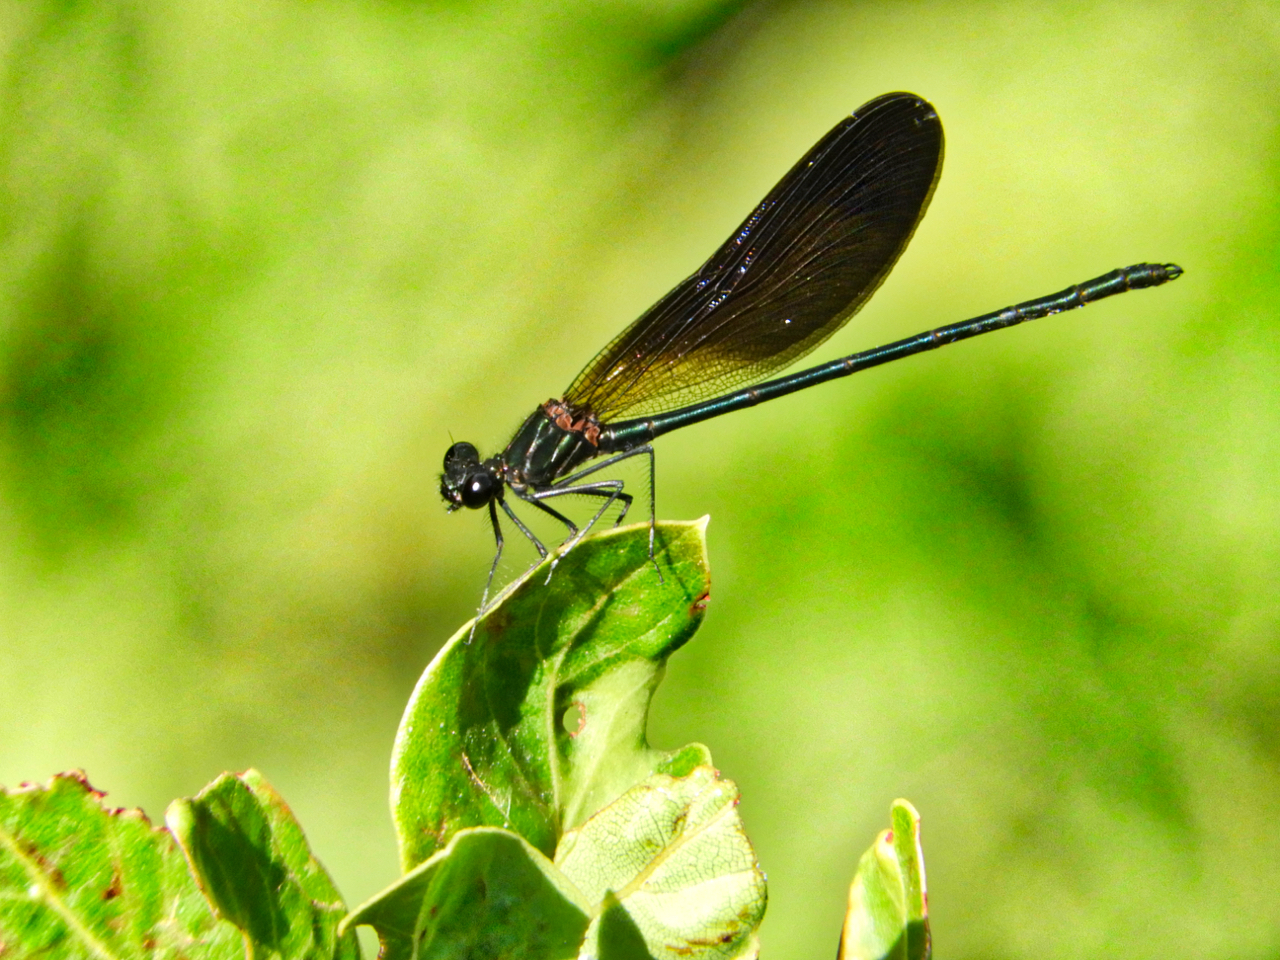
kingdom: Animalia
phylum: Arthropoda
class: Insecta
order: Odonata
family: Calopterygidae
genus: Calopteryx
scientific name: Calopteryx haemorrhoidalis
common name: Copper demoiselle
